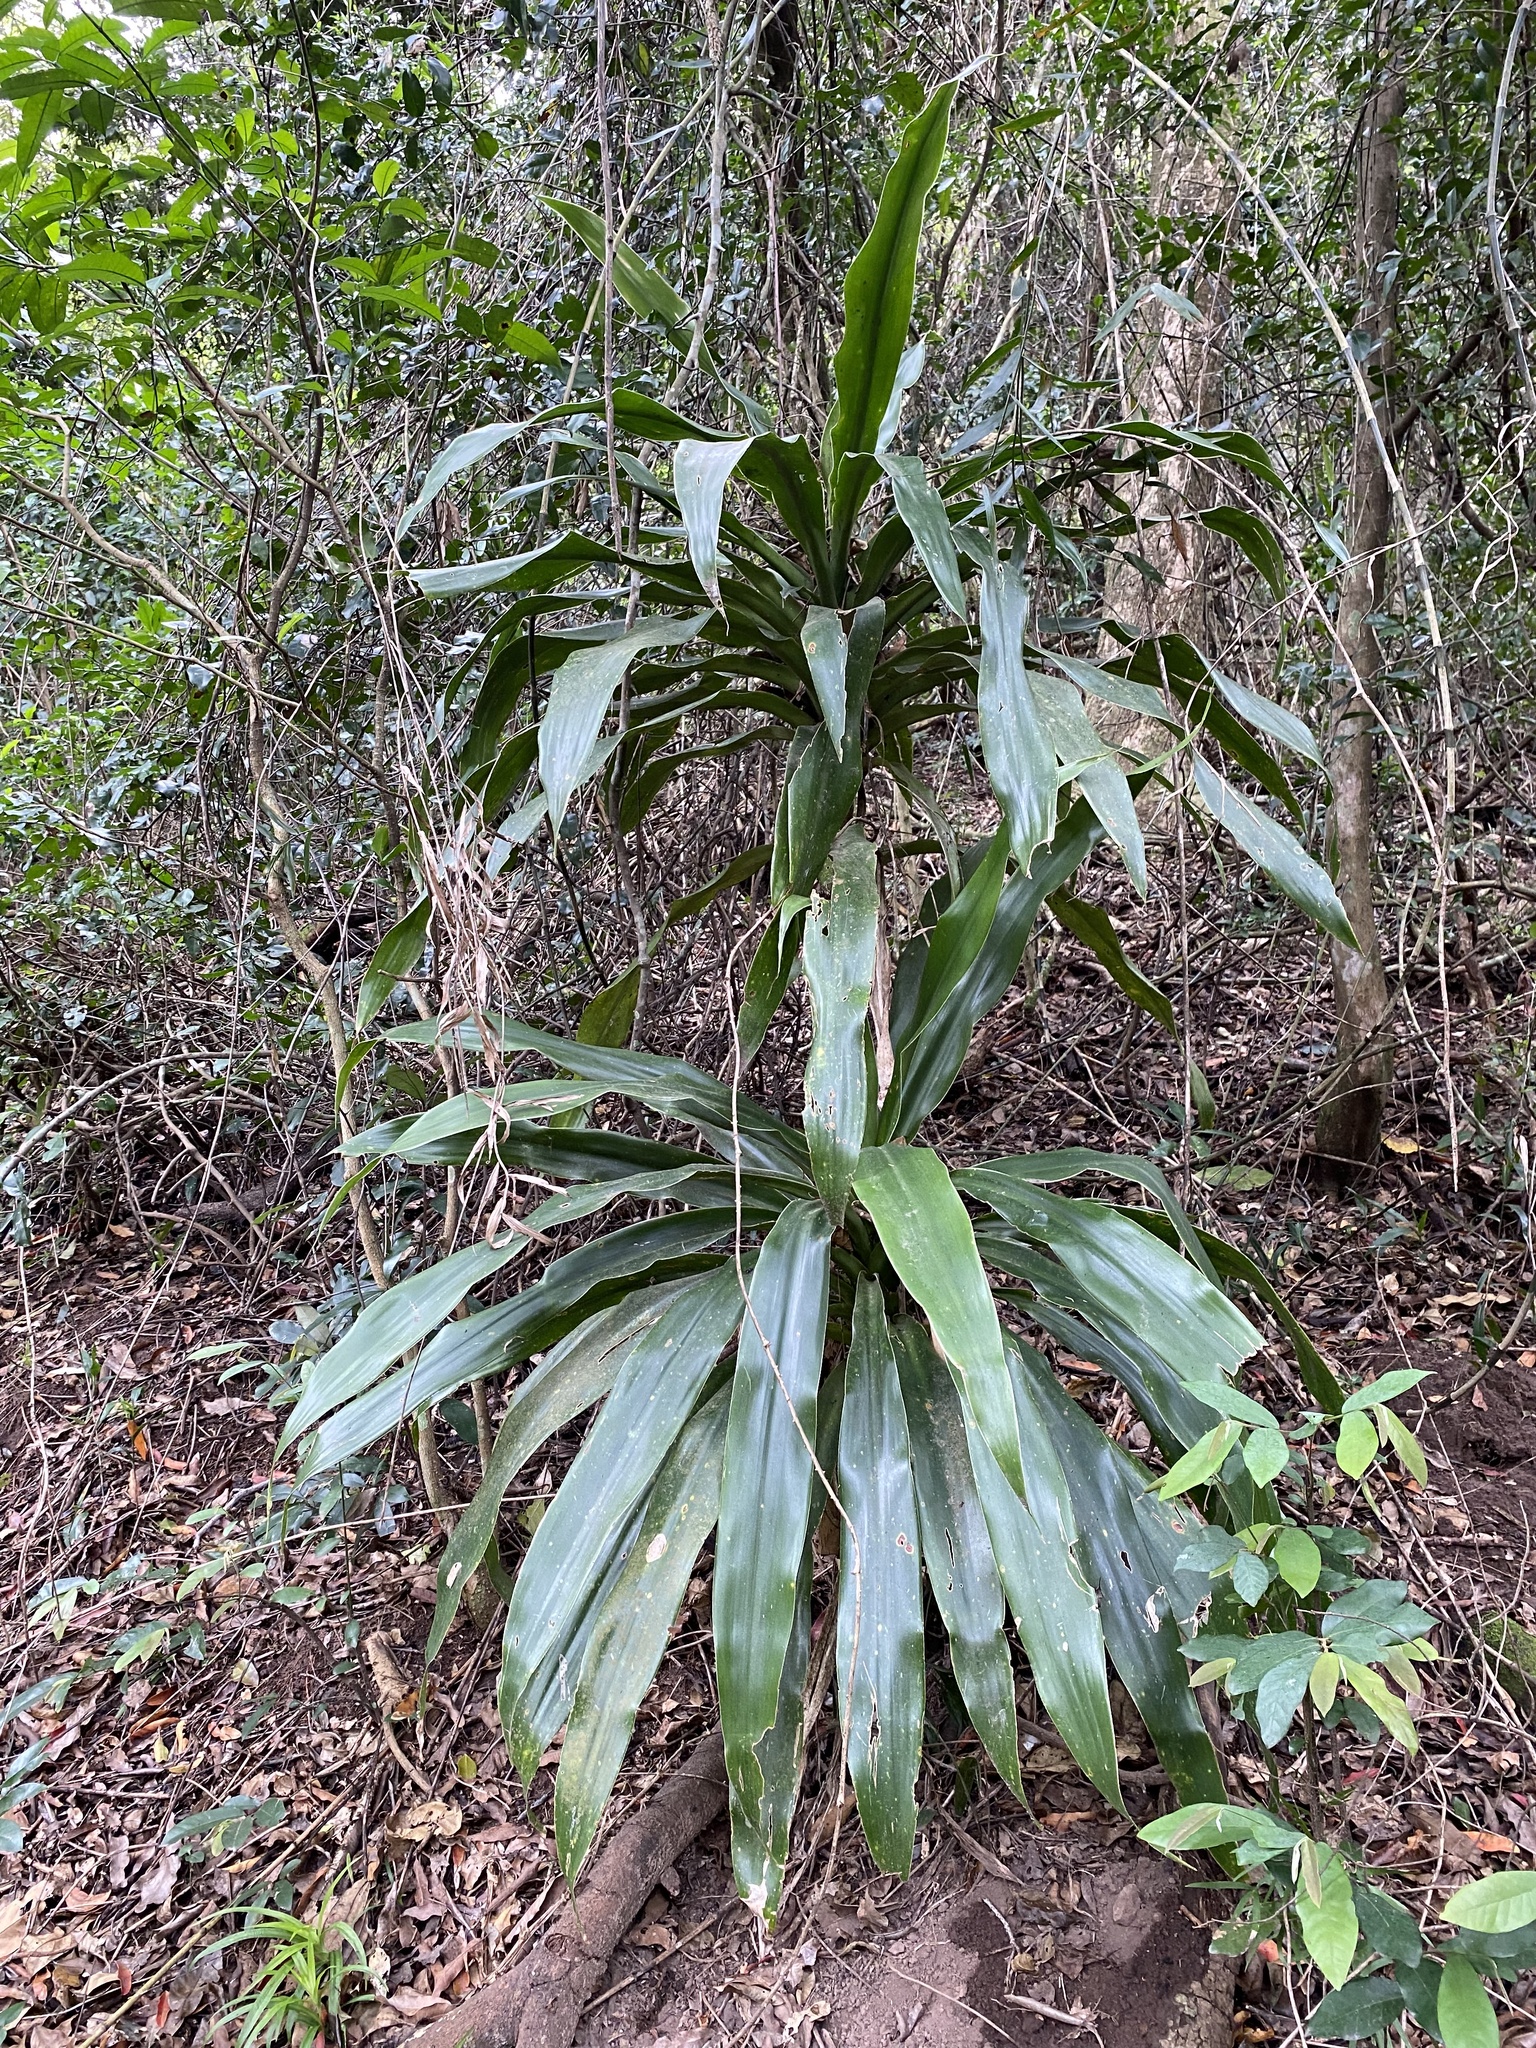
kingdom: Plantae
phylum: Tracheophyta
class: Liliopsida
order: Asparagales
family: Asparagaceae
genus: Dracaena
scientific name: Dracaena aletriformis
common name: Large-leaved dragon tree
